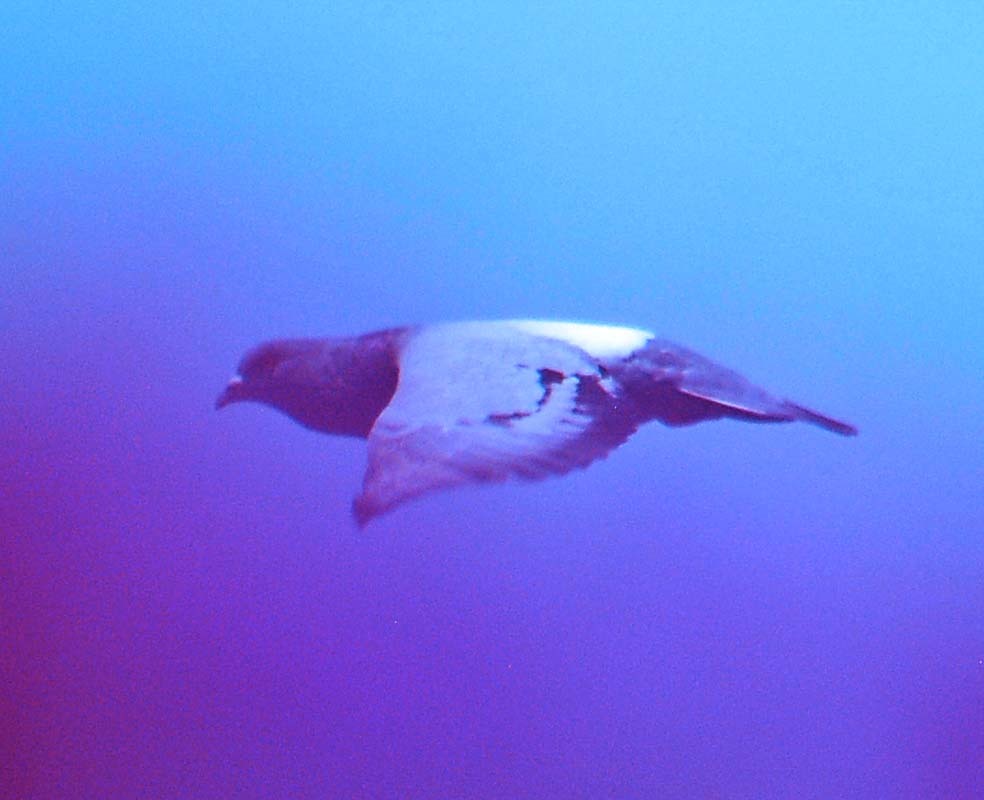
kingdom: Animalia
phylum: Chordata
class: Aves
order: Columbiformes
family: Columbidae
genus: Columba
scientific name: Columba livia
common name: Rock pigeon
